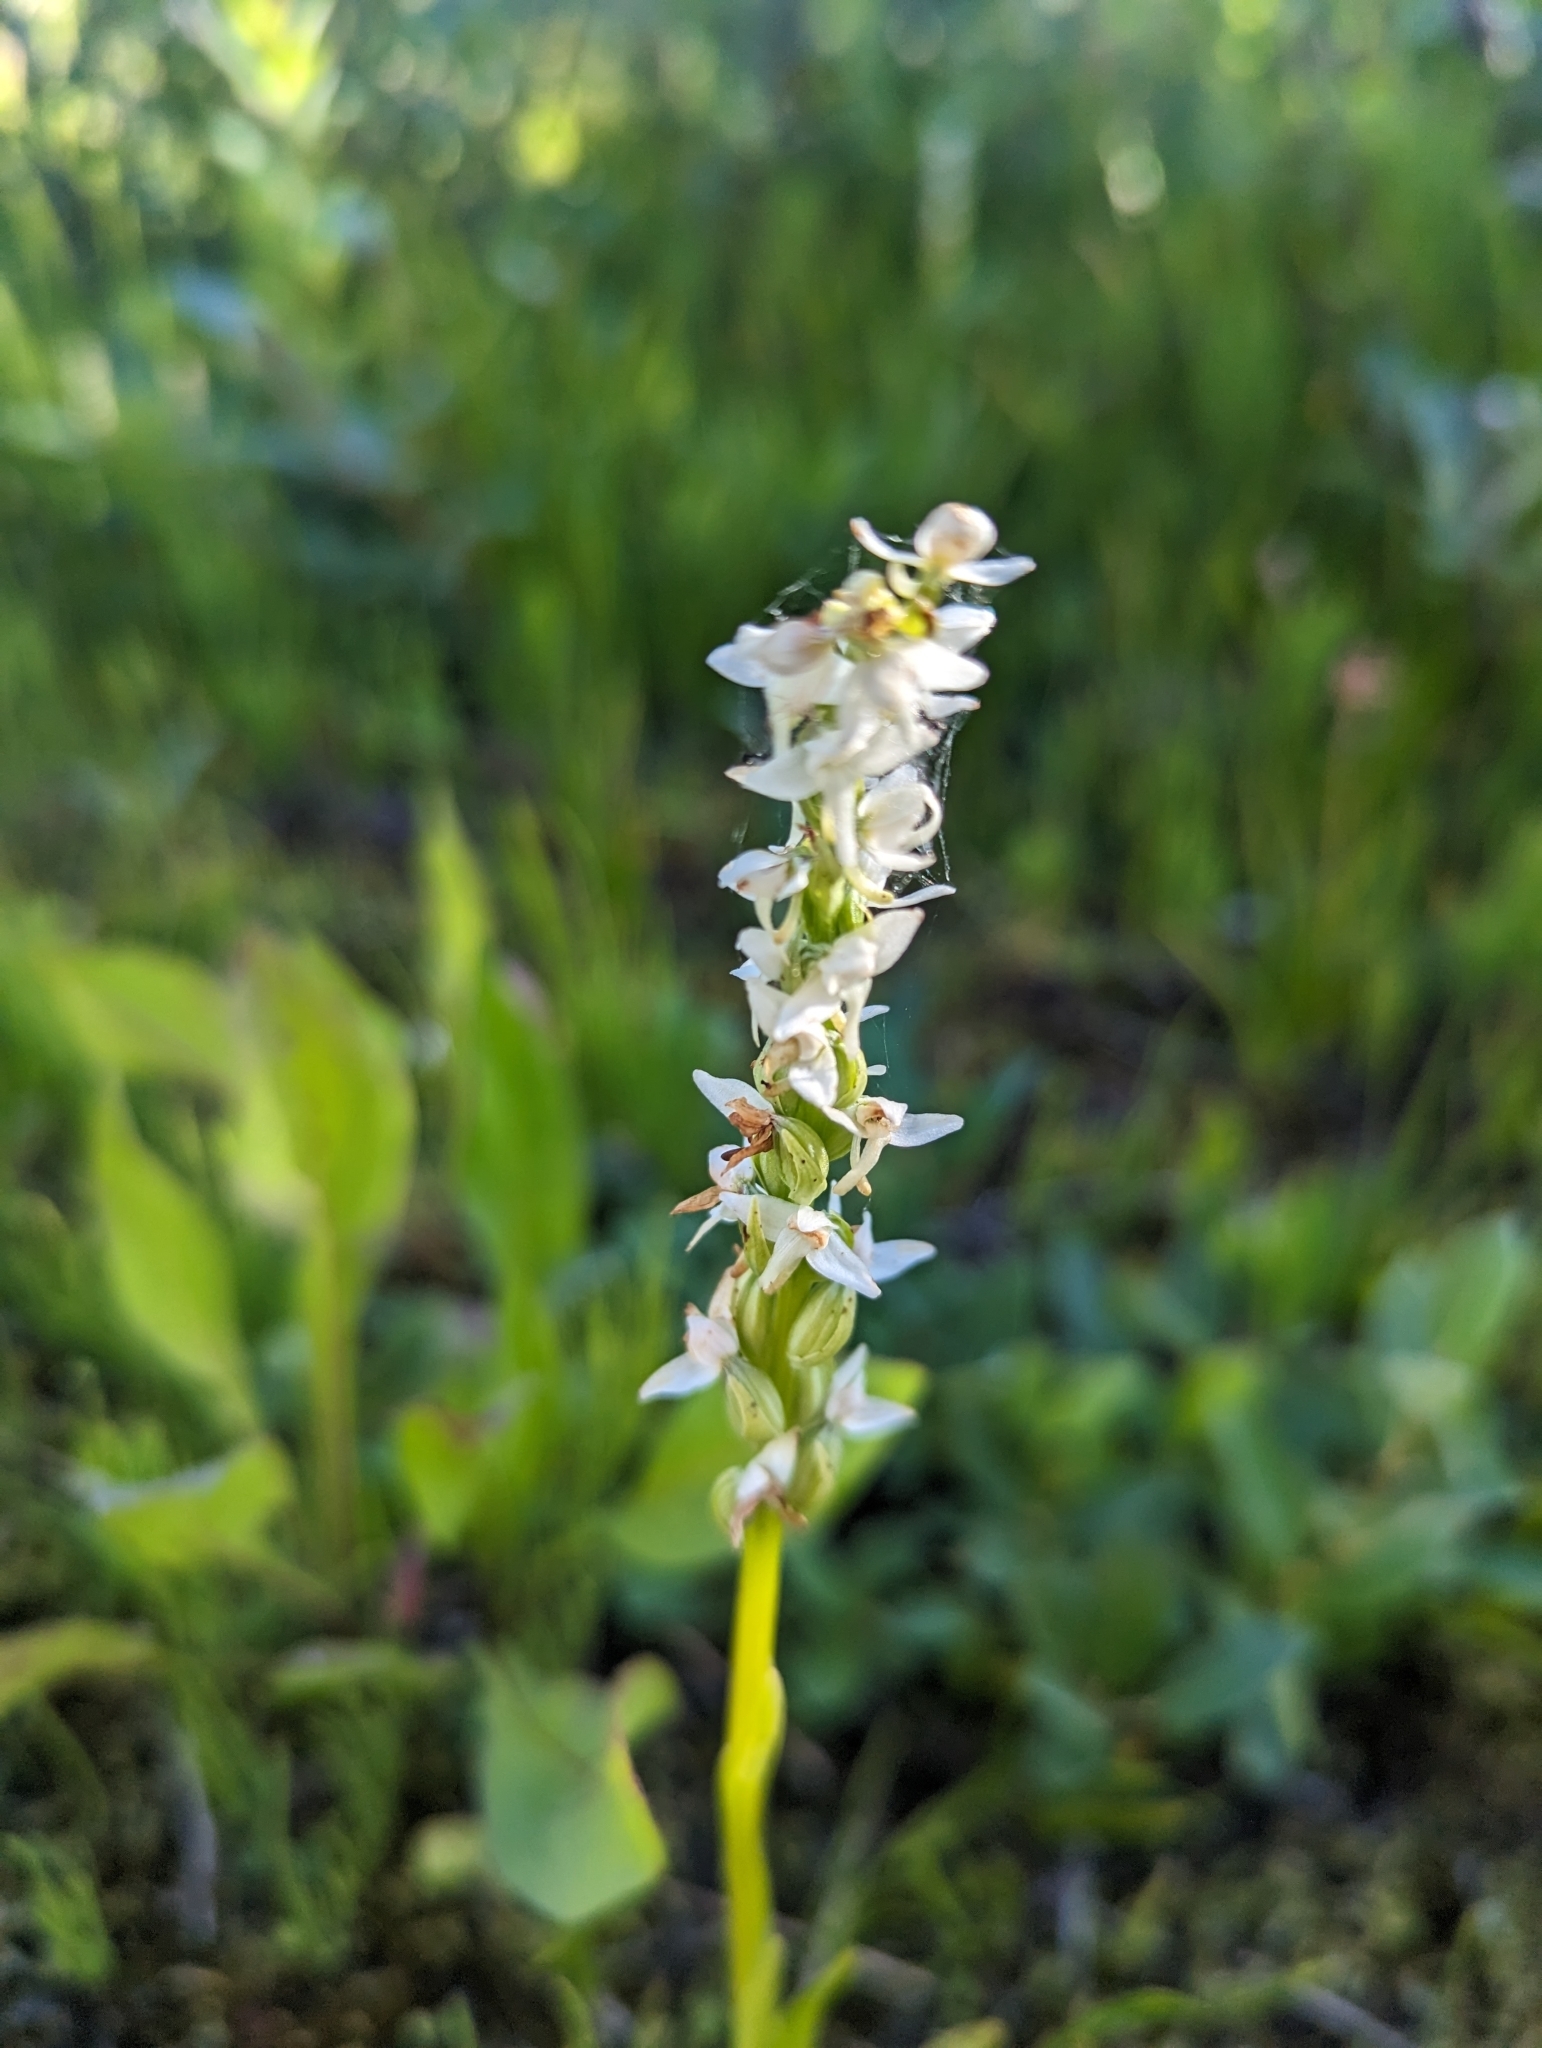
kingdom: Plantae
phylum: Tracheophyta
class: Liliopsida
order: Asparagales
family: Orchidaceae
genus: Platanthera
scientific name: Platanthera dilatata
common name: Bog candles
